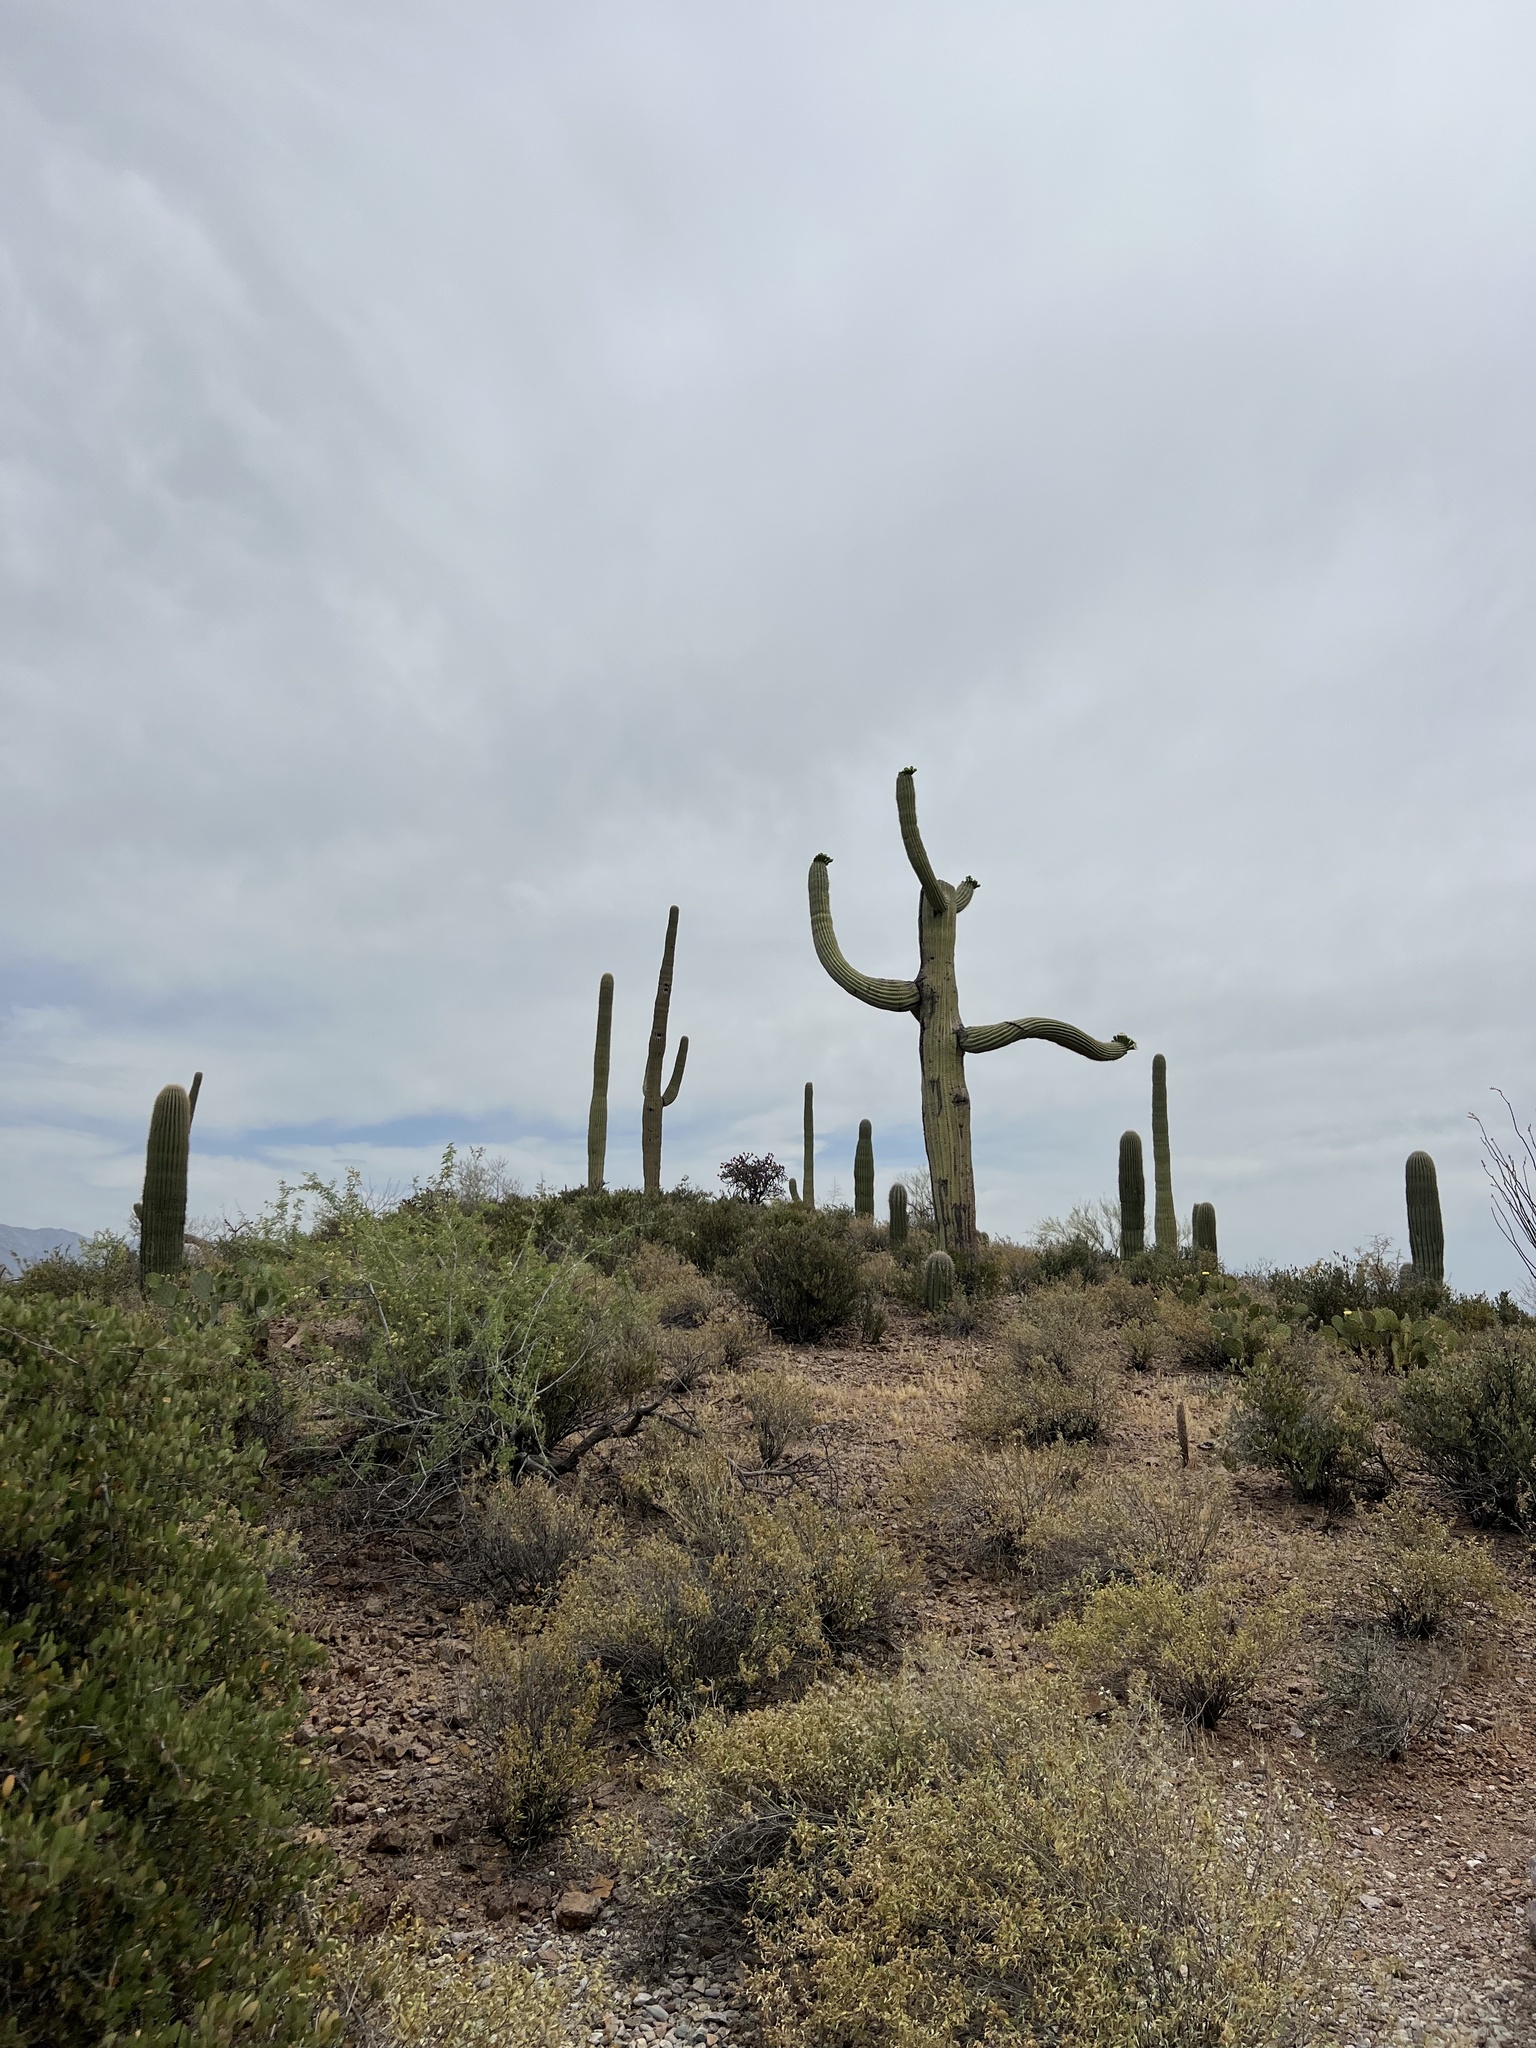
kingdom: Plantae
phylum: Tracheophyta
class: Magnoliopsida
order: Caryophyllales
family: Cactaceae
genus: Carnegiea
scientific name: Carnegiea gigantea
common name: Saguaro
